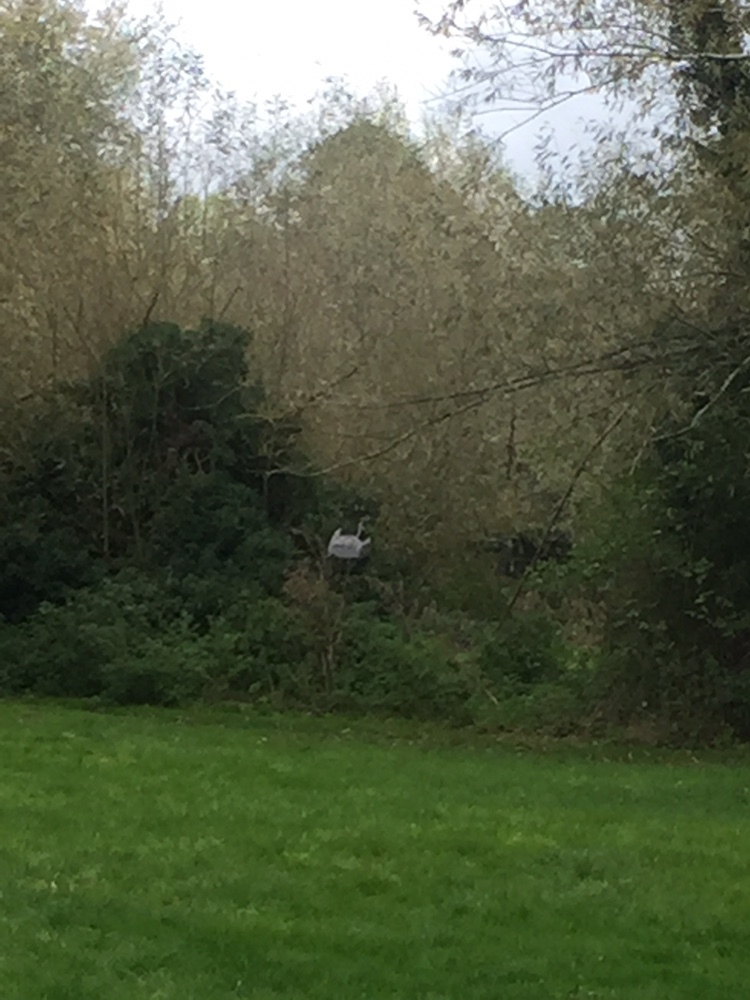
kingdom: Animalia
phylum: Chordata
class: Aves
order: Pelecaniformes
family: Ardeidae
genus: Ardea
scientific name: Ardea cinerea
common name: Grey heron
